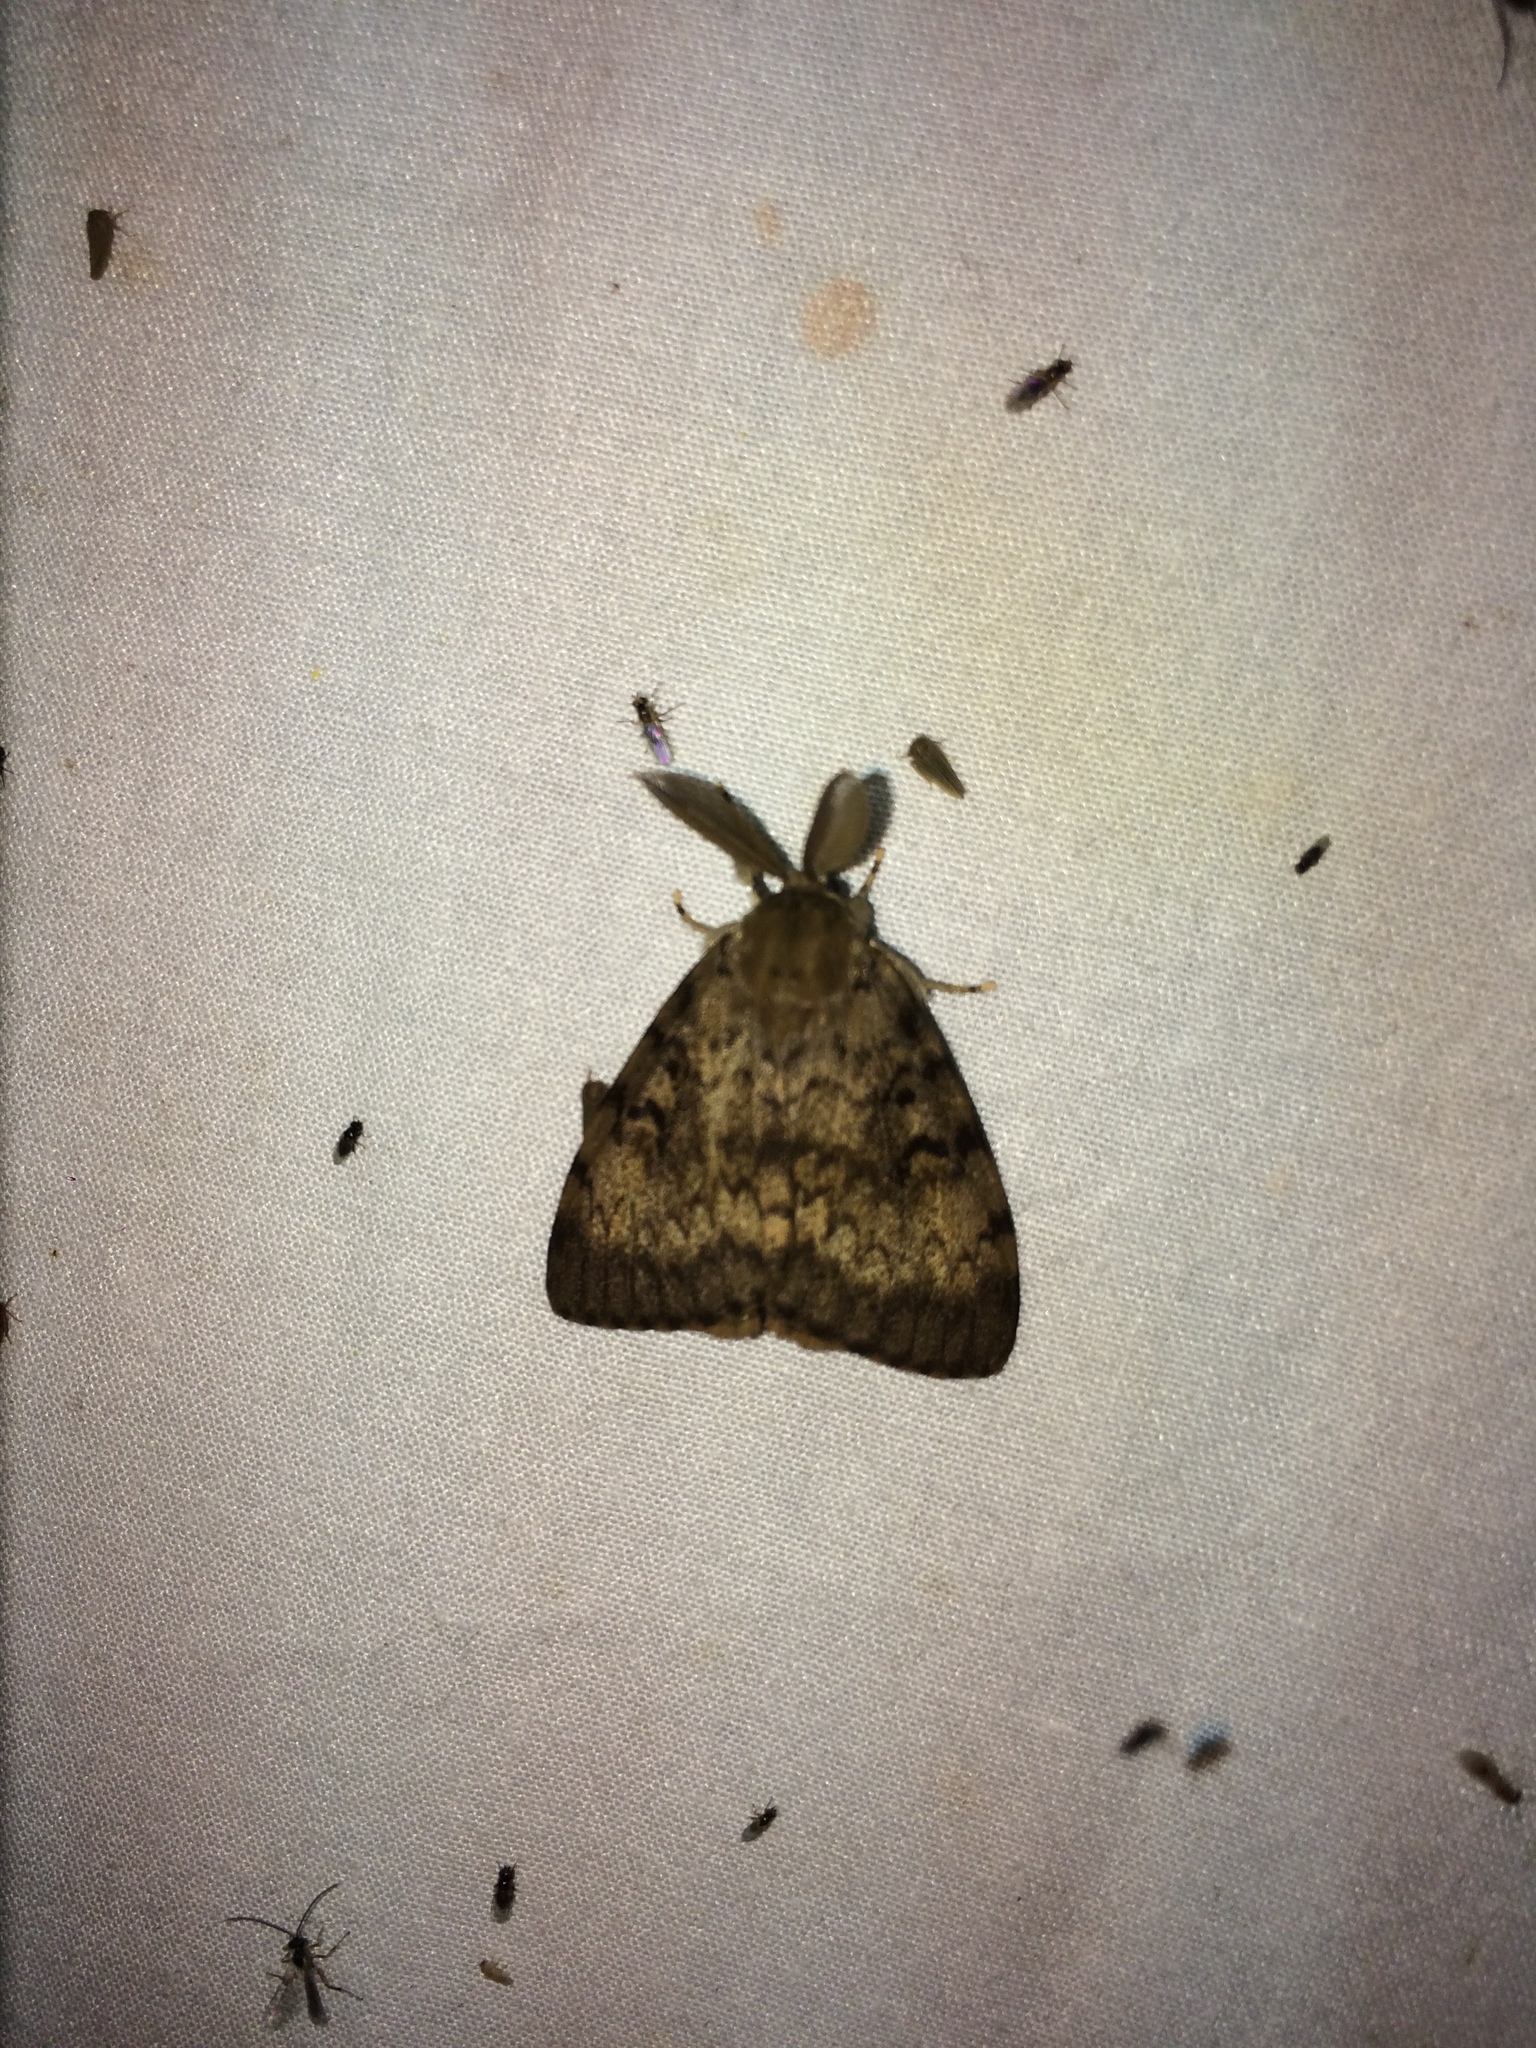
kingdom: Animalia
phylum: Arthropoda
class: Insecta
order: Lepidoptera
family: Erebidae
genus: Lymantria
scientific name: Lymantria dispar
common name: Gypsy moth
